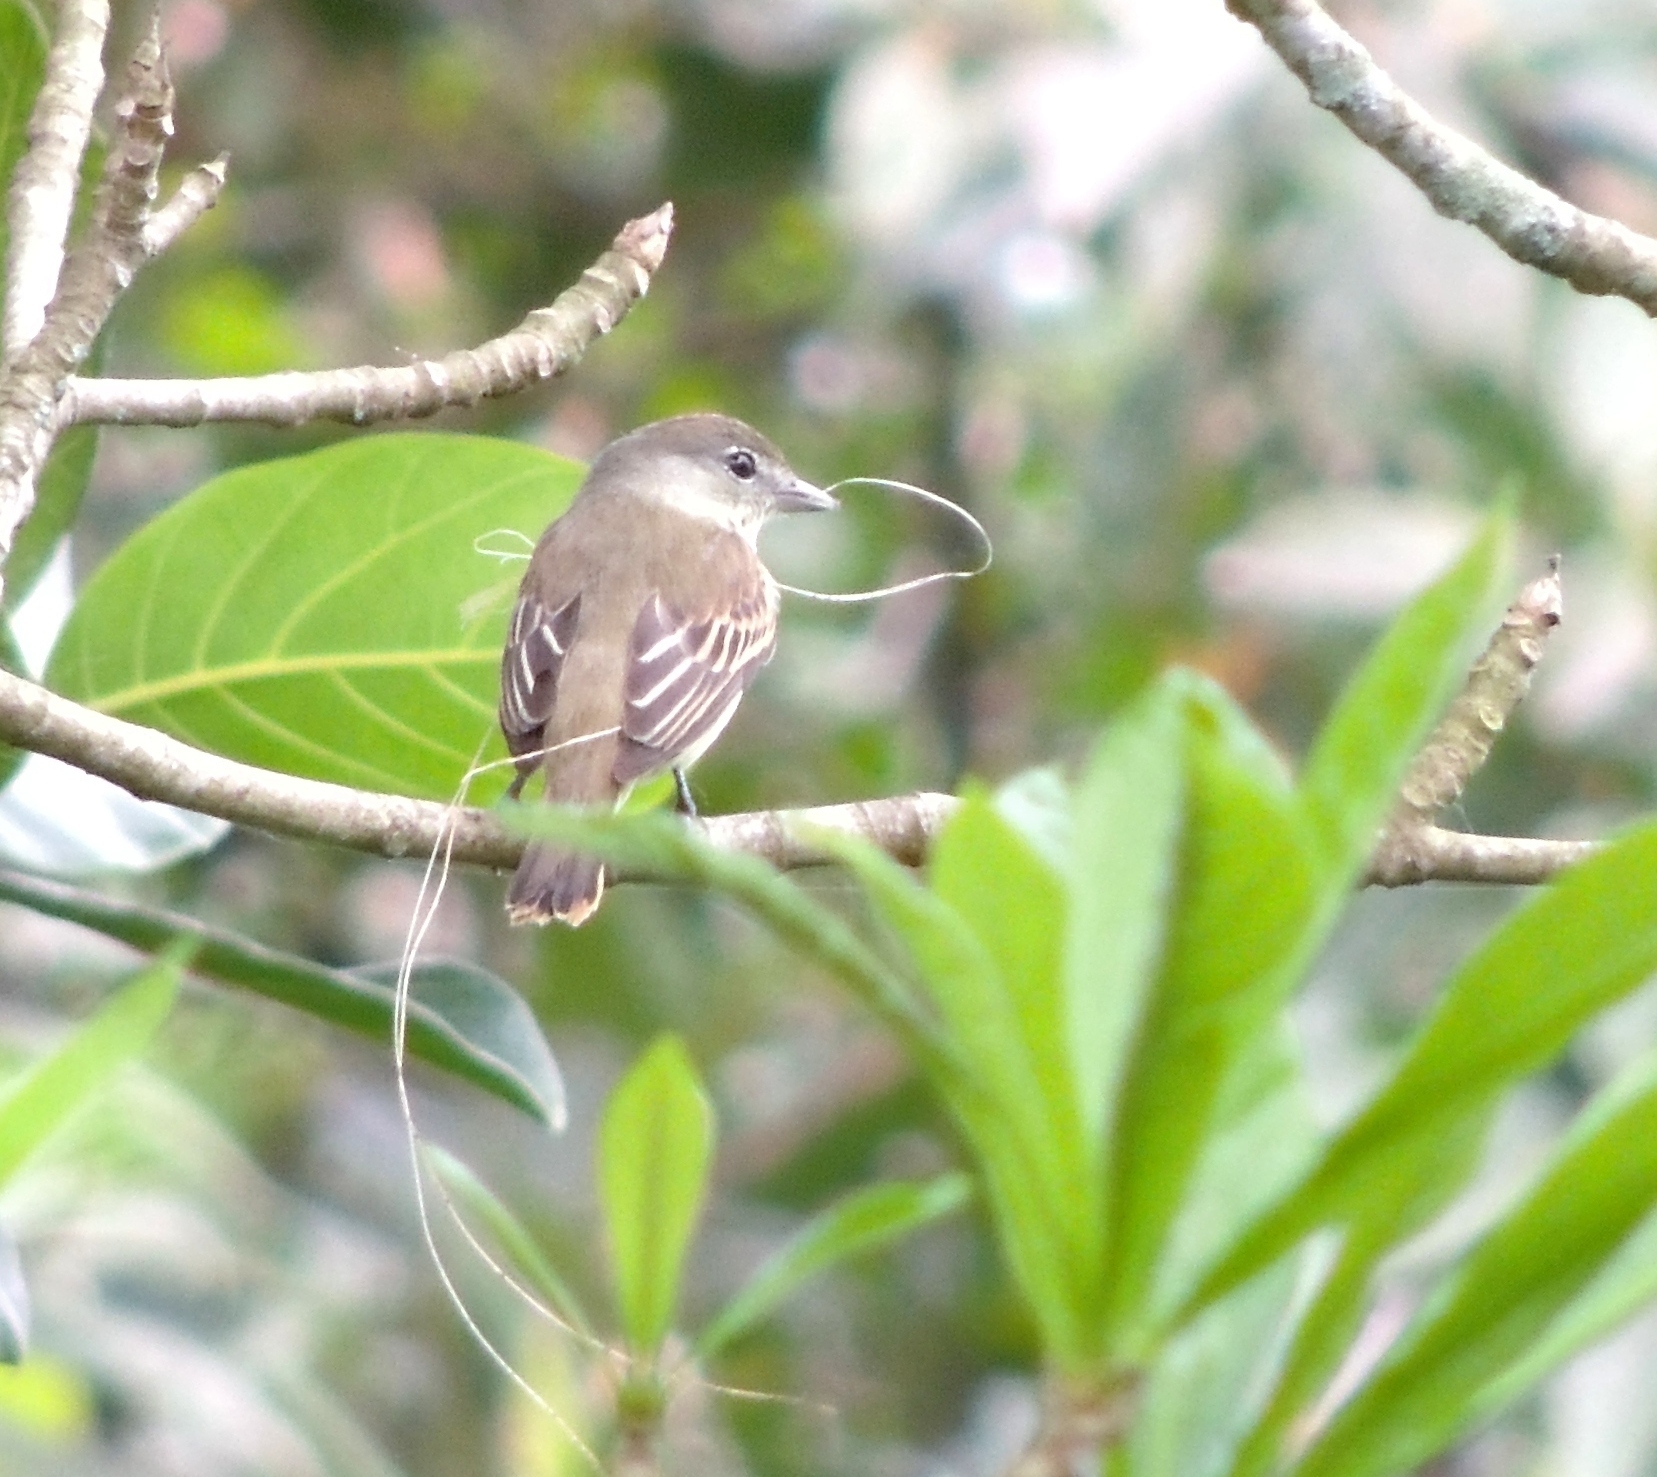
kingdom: Animalia
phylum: Chordata
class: Aves
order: Passeriformes
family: Cotingidae
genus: Pachyramphus
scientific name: Pachyramphus polychopterus
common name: White-winged becard
